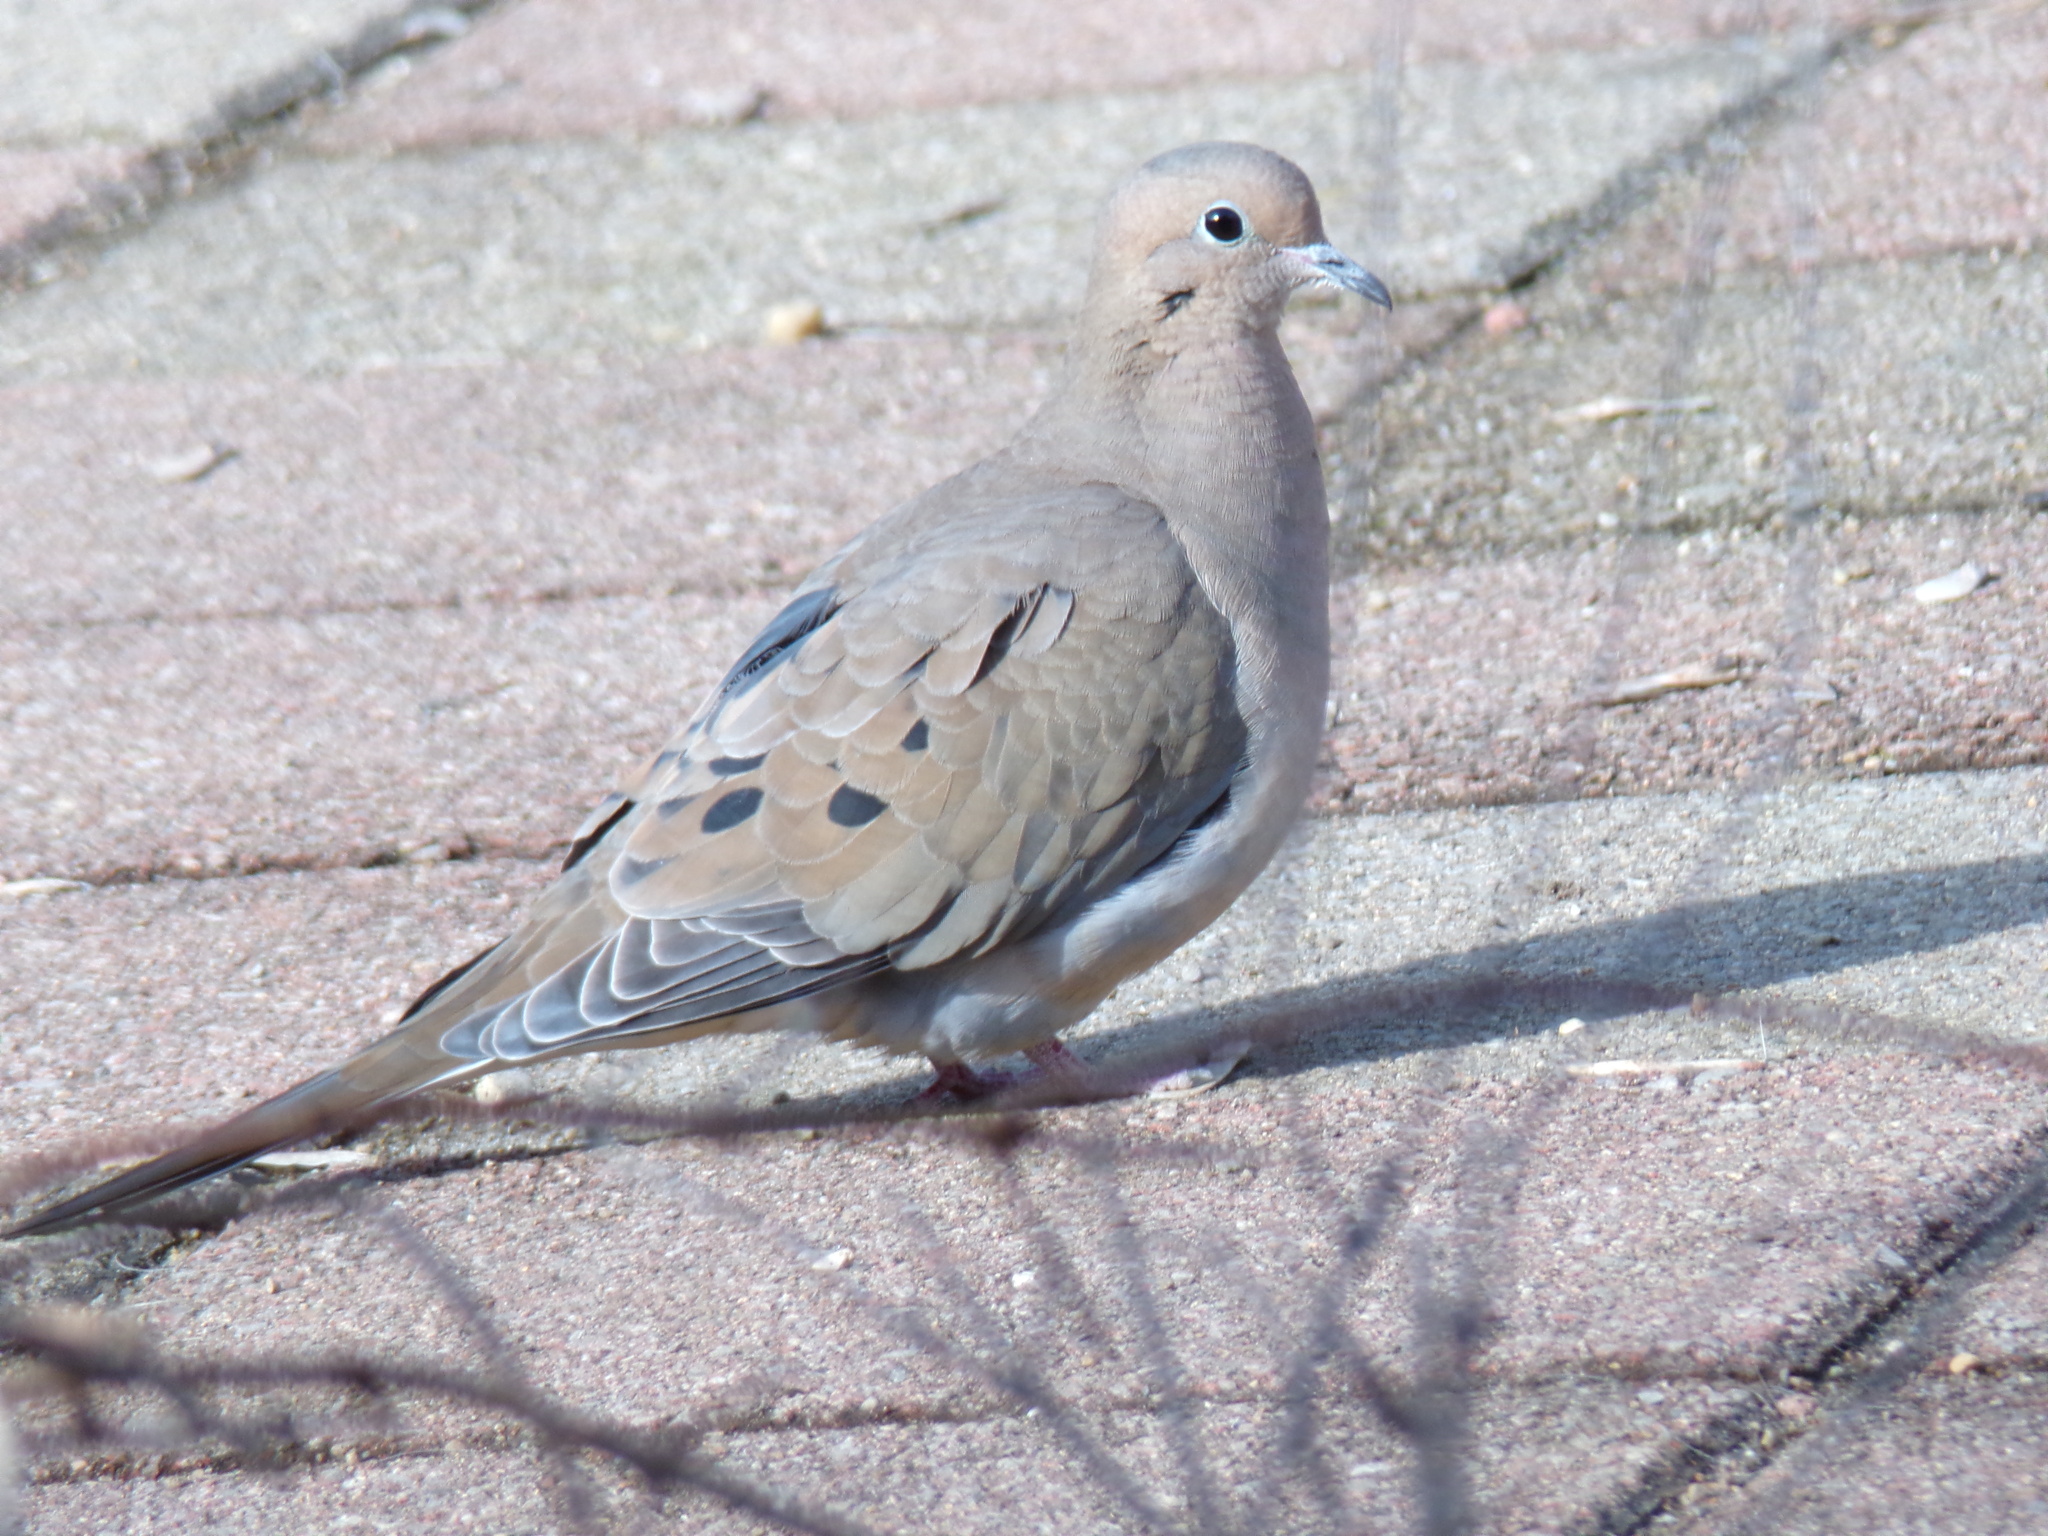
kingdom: Animalia
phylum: Chordata
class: Aves
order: Columbiformes
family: Columbidae
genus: Zenaida
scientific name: Zenaida macroura
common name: Mourning dove
